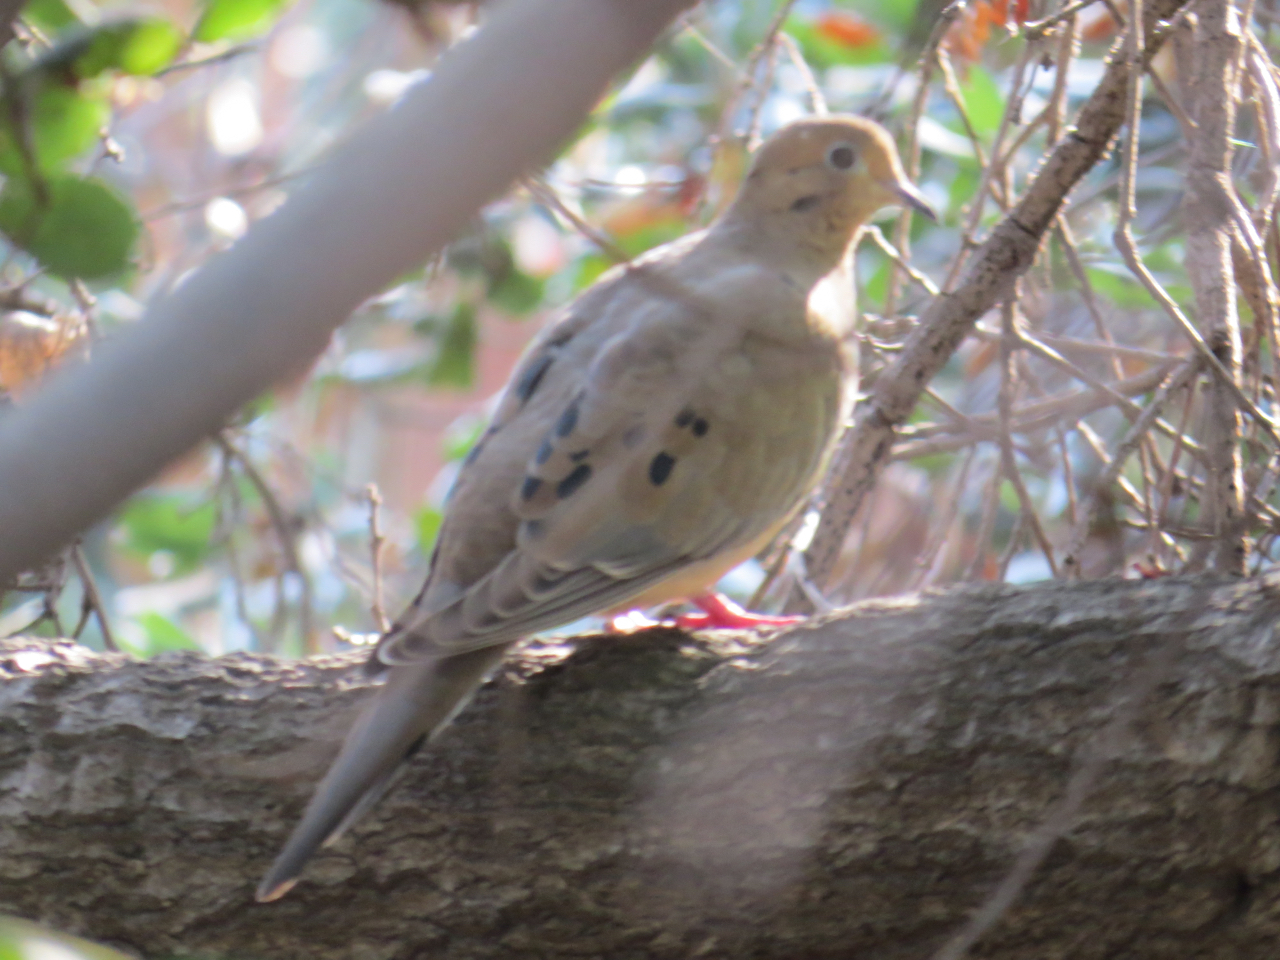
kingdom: Animalia
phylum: Chordata
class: Aves
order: Columbiformes
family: Columbidae
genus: Zenaida
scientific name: Zenaida macroura
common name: Mourning dove
